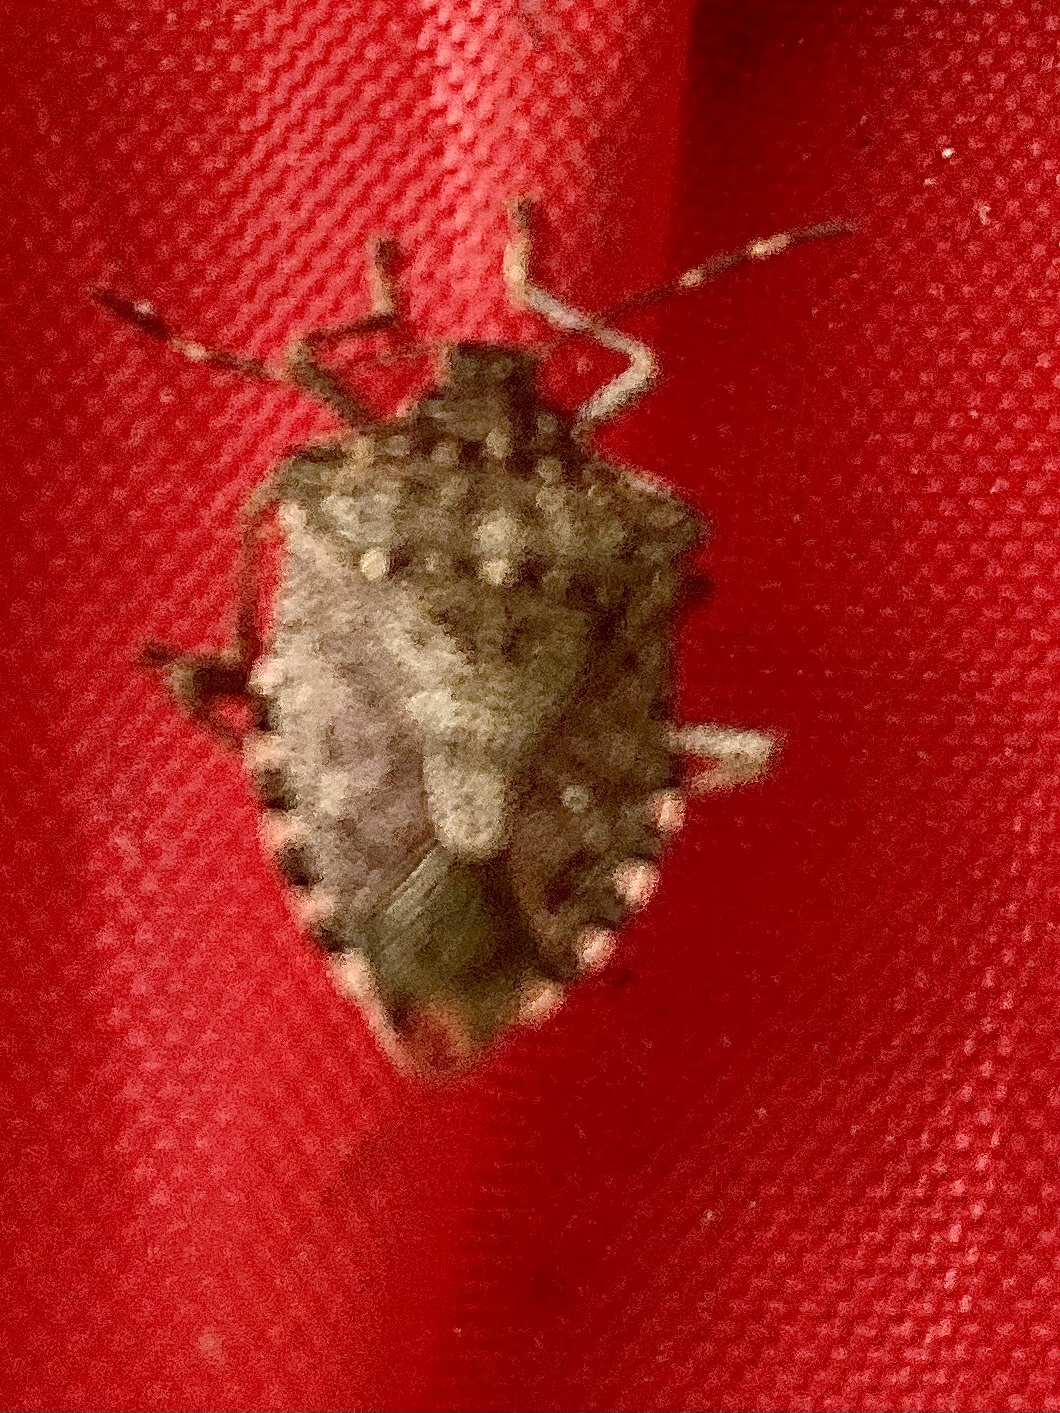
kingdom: Animalia
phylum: Arthropoda
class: Insecta
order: Hemiptera
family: Pentatomidae
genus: Halyomorpha
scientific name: Halyomorpha halys
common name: Brown marmorated stink bug
